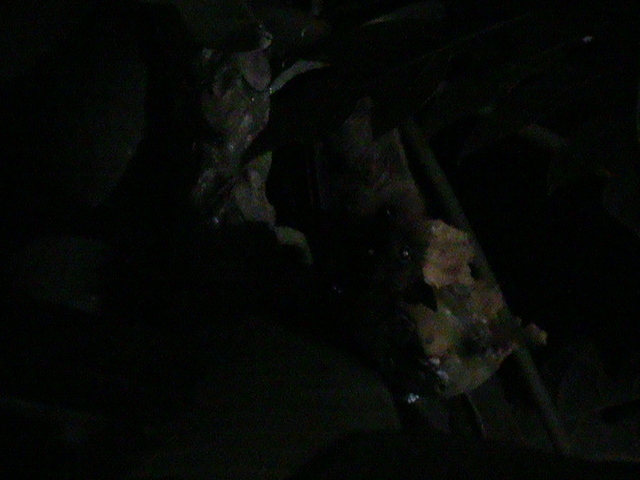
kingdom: Animalia
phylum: Chordata
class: Mammalia
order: Chiroptera
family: Pteropodidae
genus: Pteropus
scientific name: Pteropus vampyrus
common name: Large flying fox
